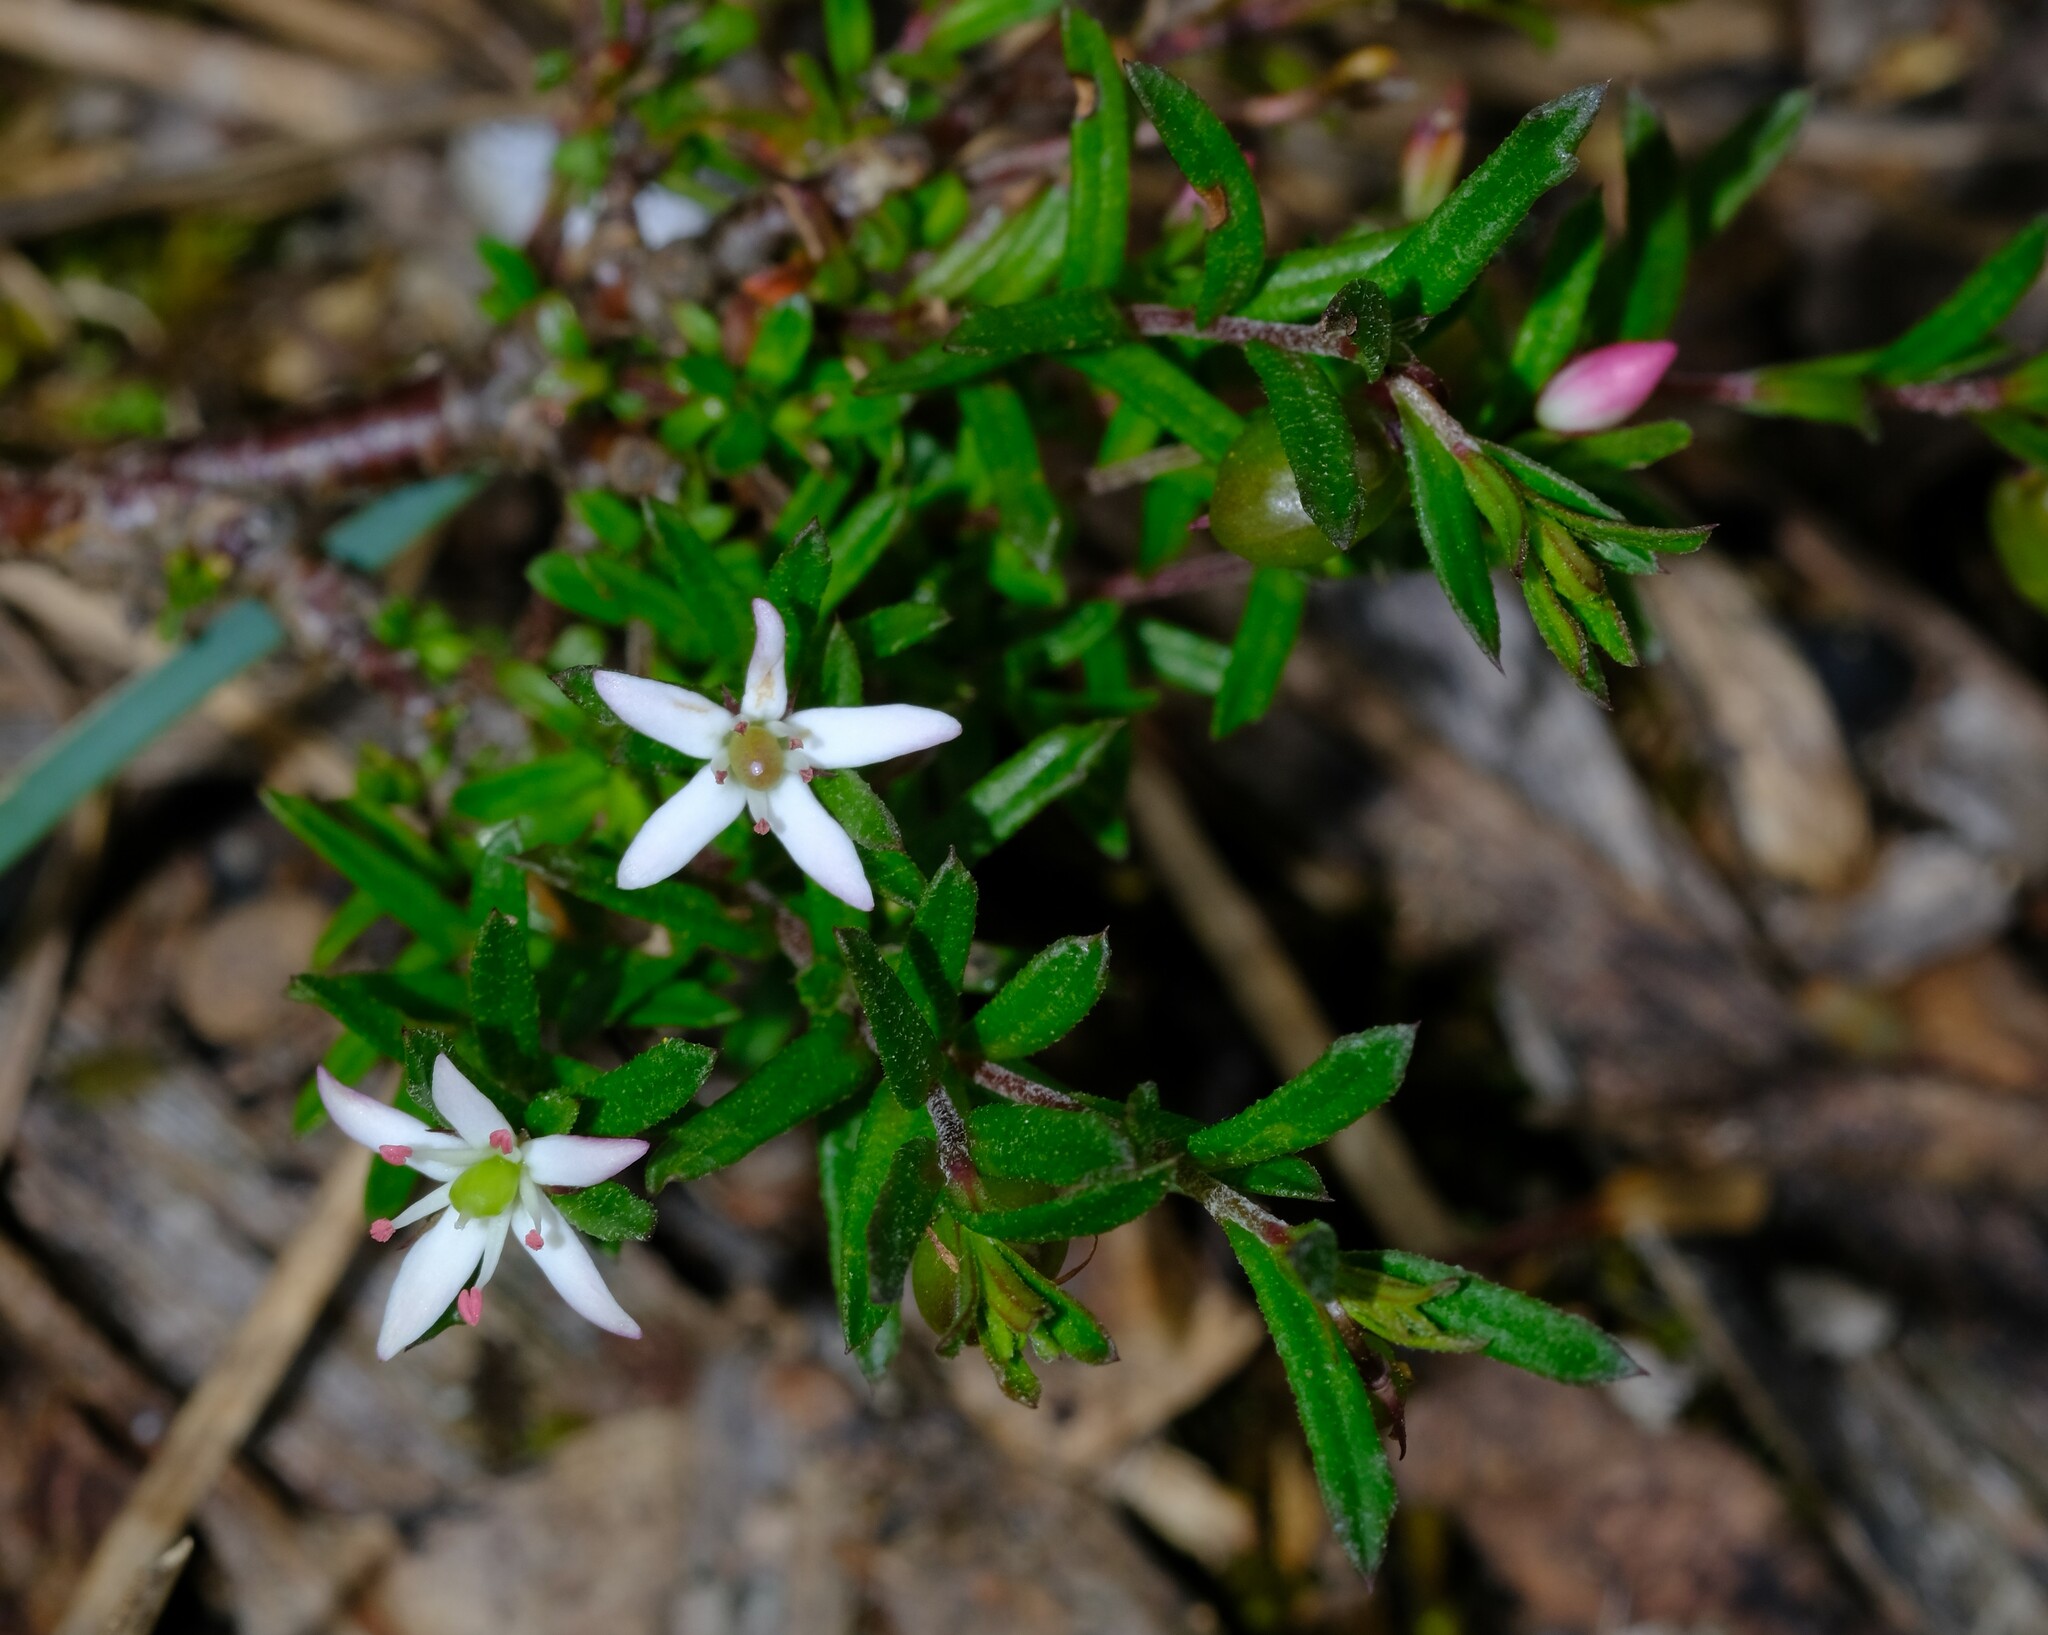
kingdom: Plantae
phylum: Tracheophyta
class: Magnoliopsida
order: Apiales
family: Pittosporaceae
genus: Rhytidosporum
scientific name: Rhytidosporum procumbens
